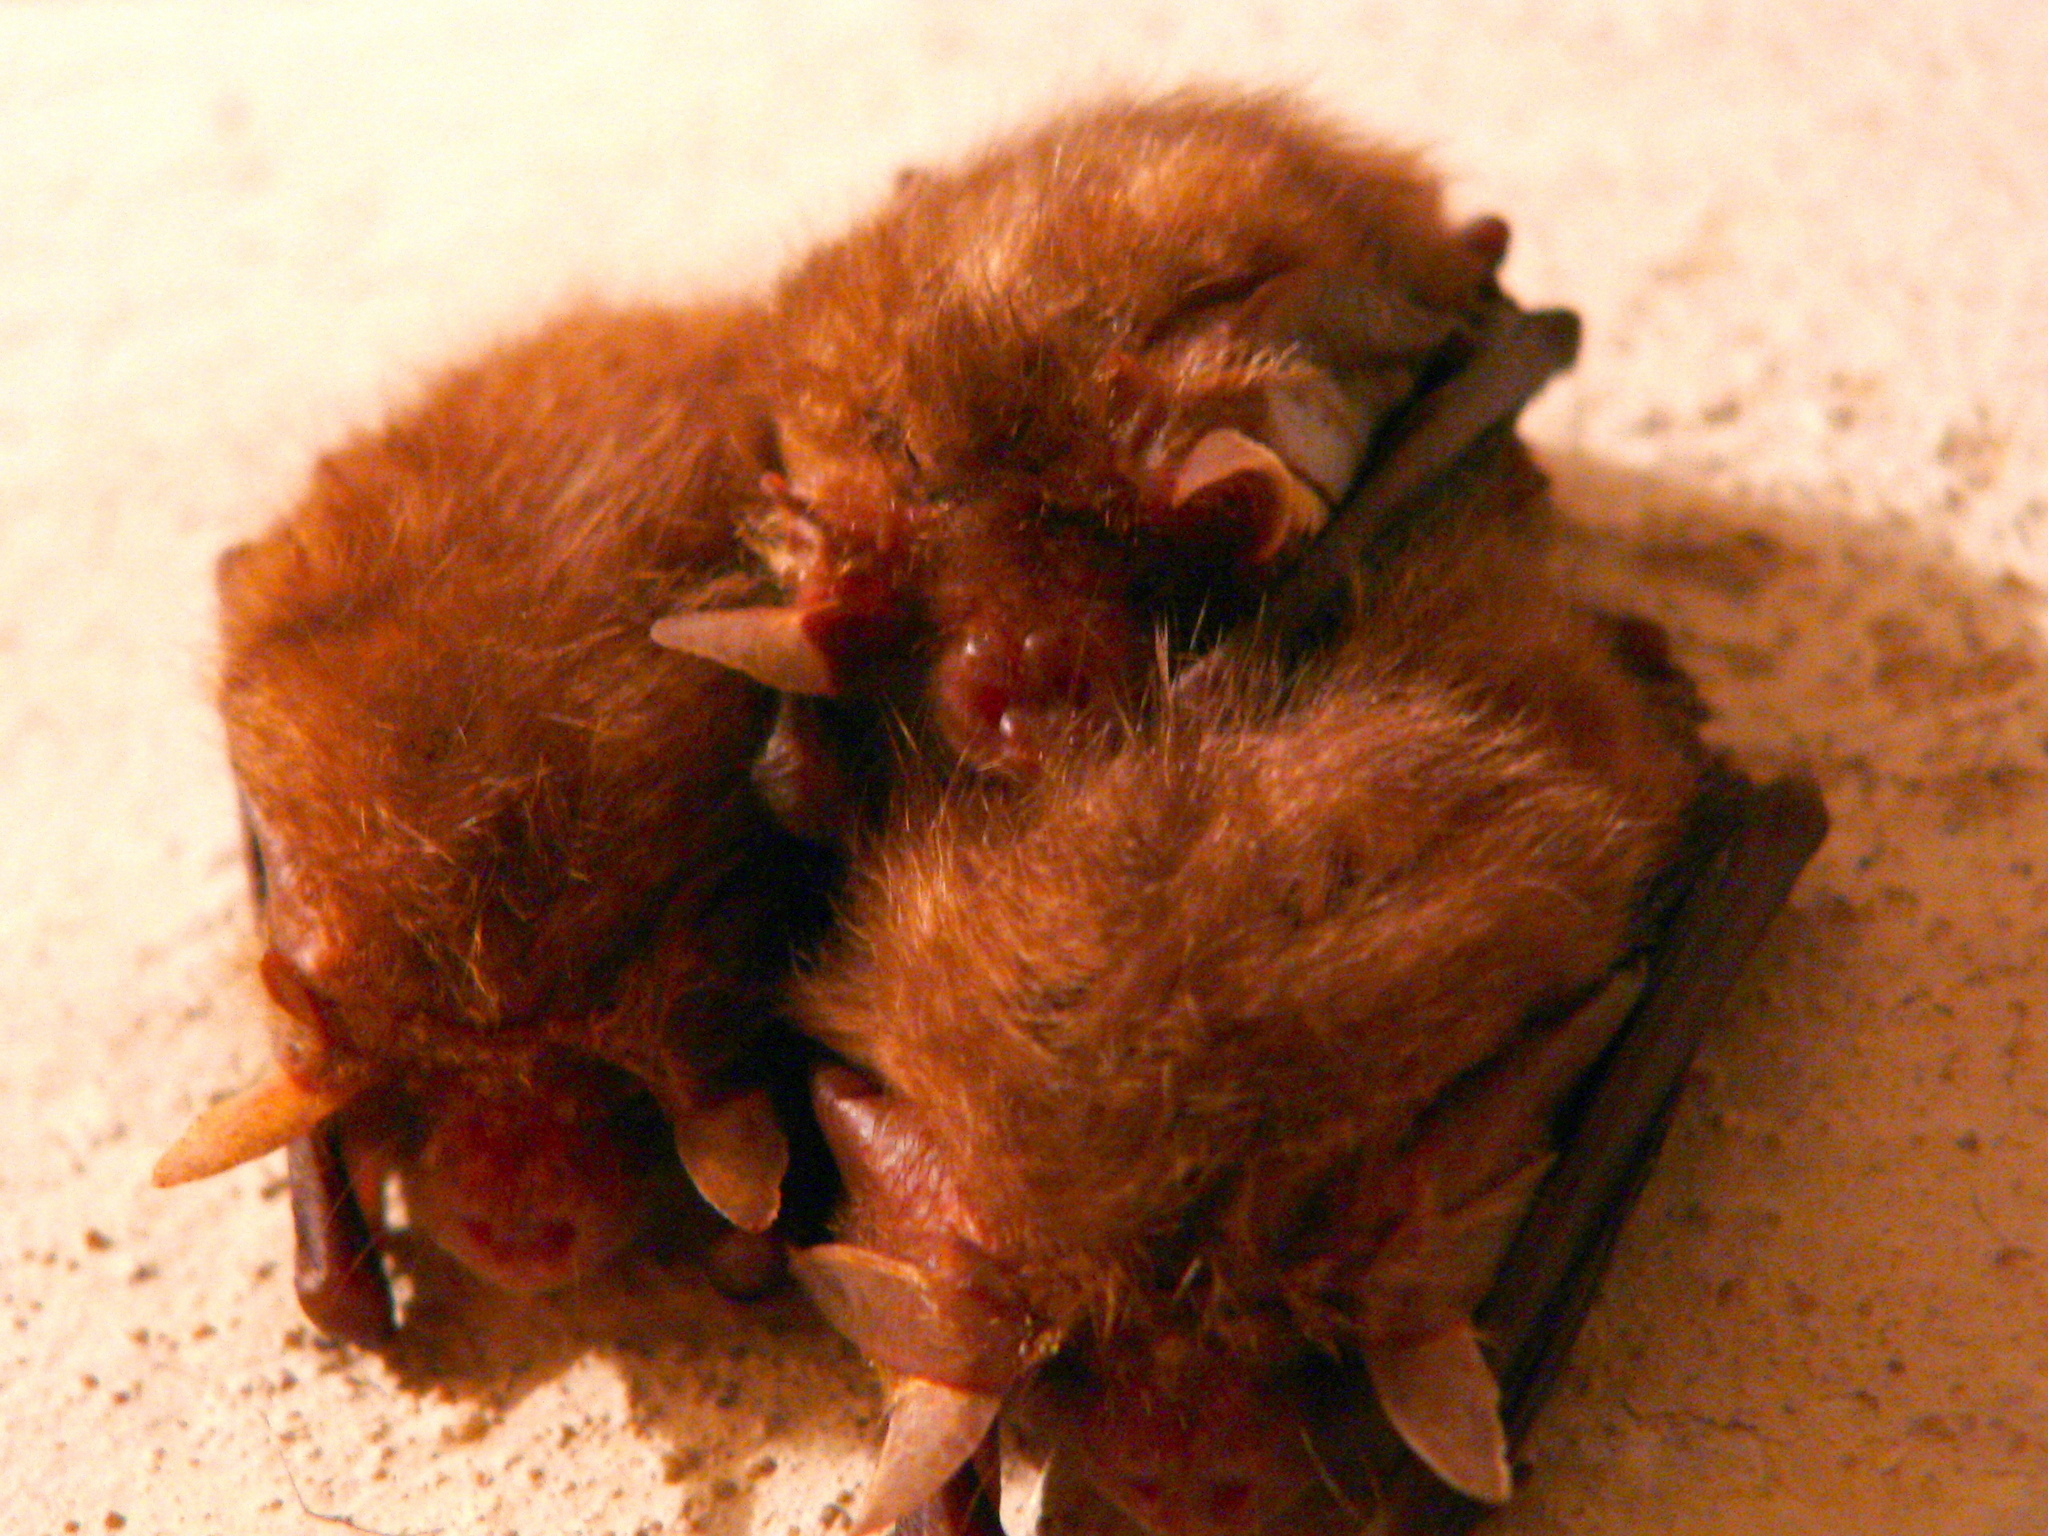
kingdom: Animalia
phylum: Chordata
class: Mammalia
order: Chiroptera
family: Vespertilionidae
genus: Plecotus
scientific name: Plecotus auritus
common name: Brown long-eared bat
